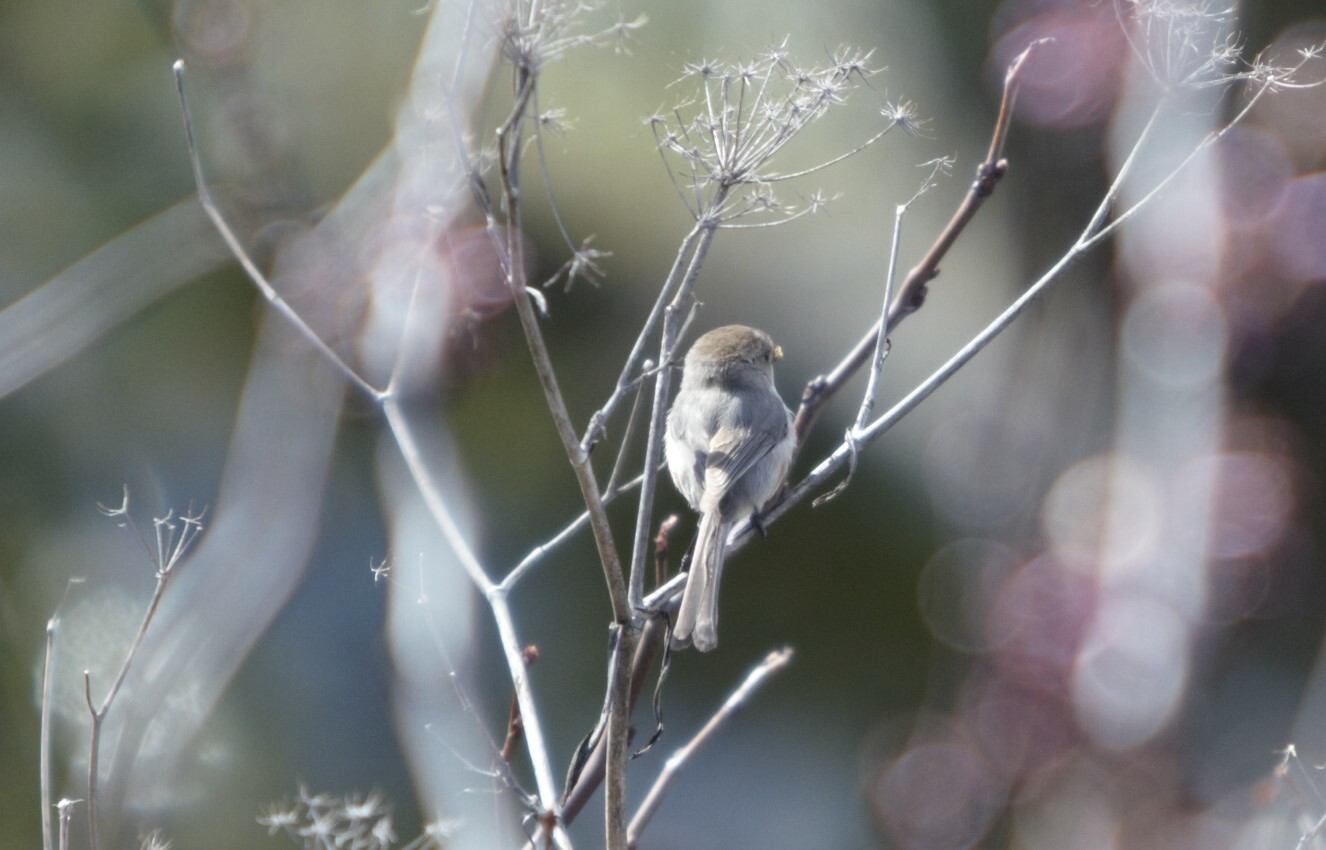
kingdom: Animalia
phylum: Chordata
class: Aves
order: Passeriformes
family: Aegithalidae
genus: Psaltriparus
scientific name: Psaltriparus minimus
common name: American bushtit
